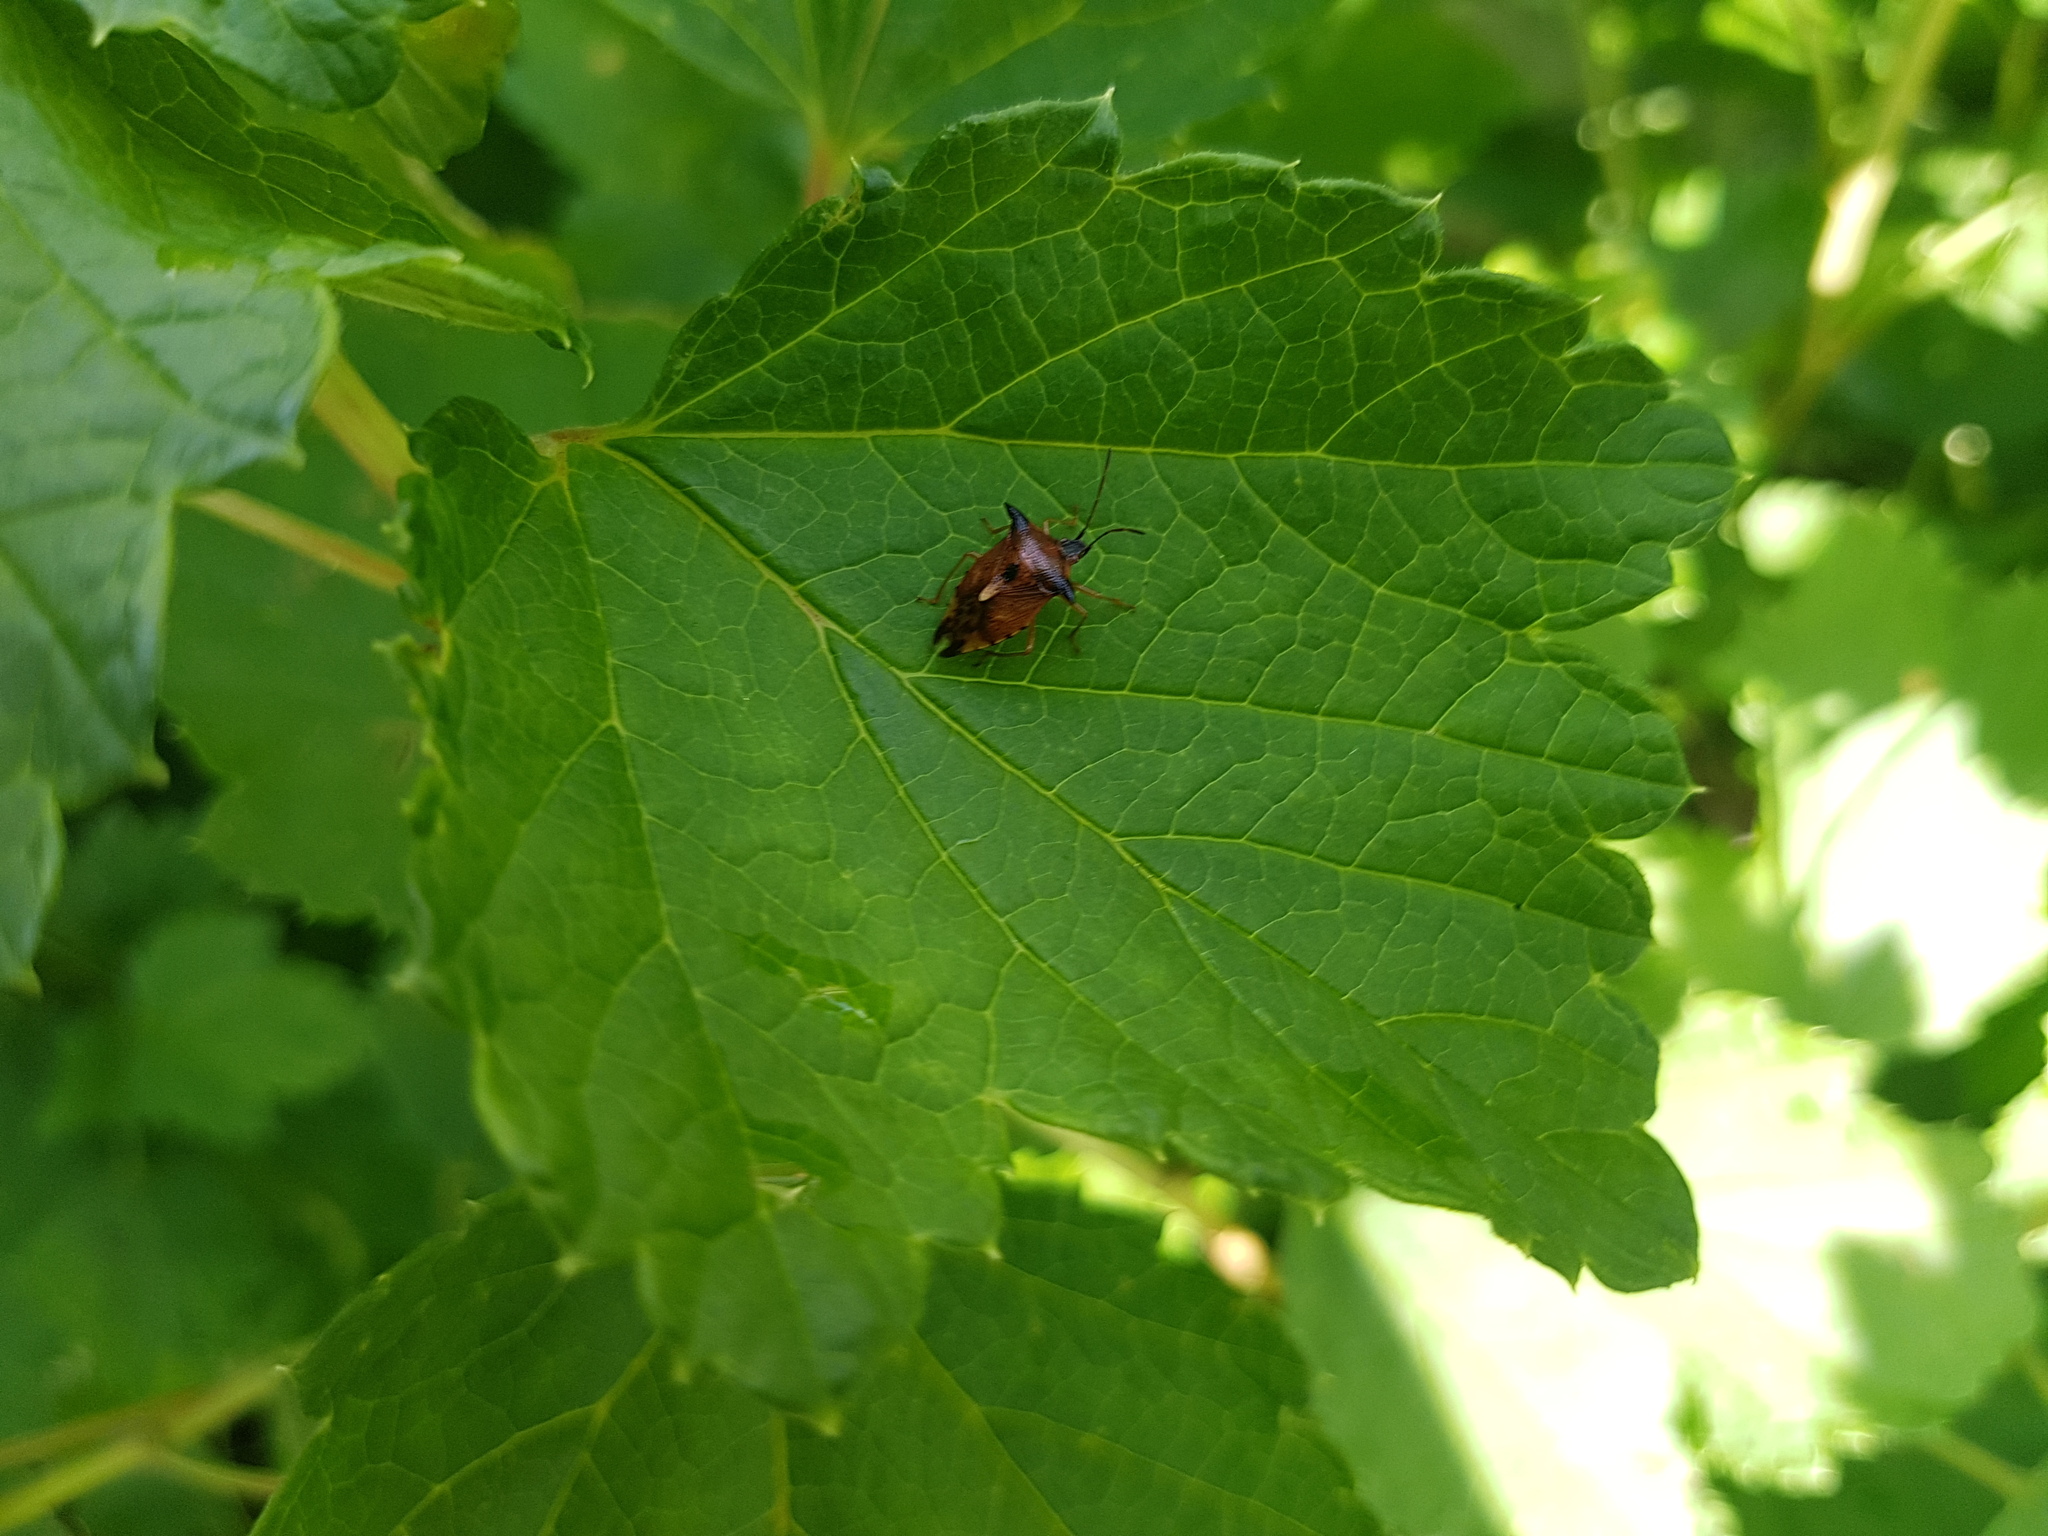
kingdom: Animalia
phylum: Arthropoda
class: Insecta
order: Hemiptera
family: Acanthosomatidae
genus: Elasmucha
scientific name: Elasmucha ferrugata
